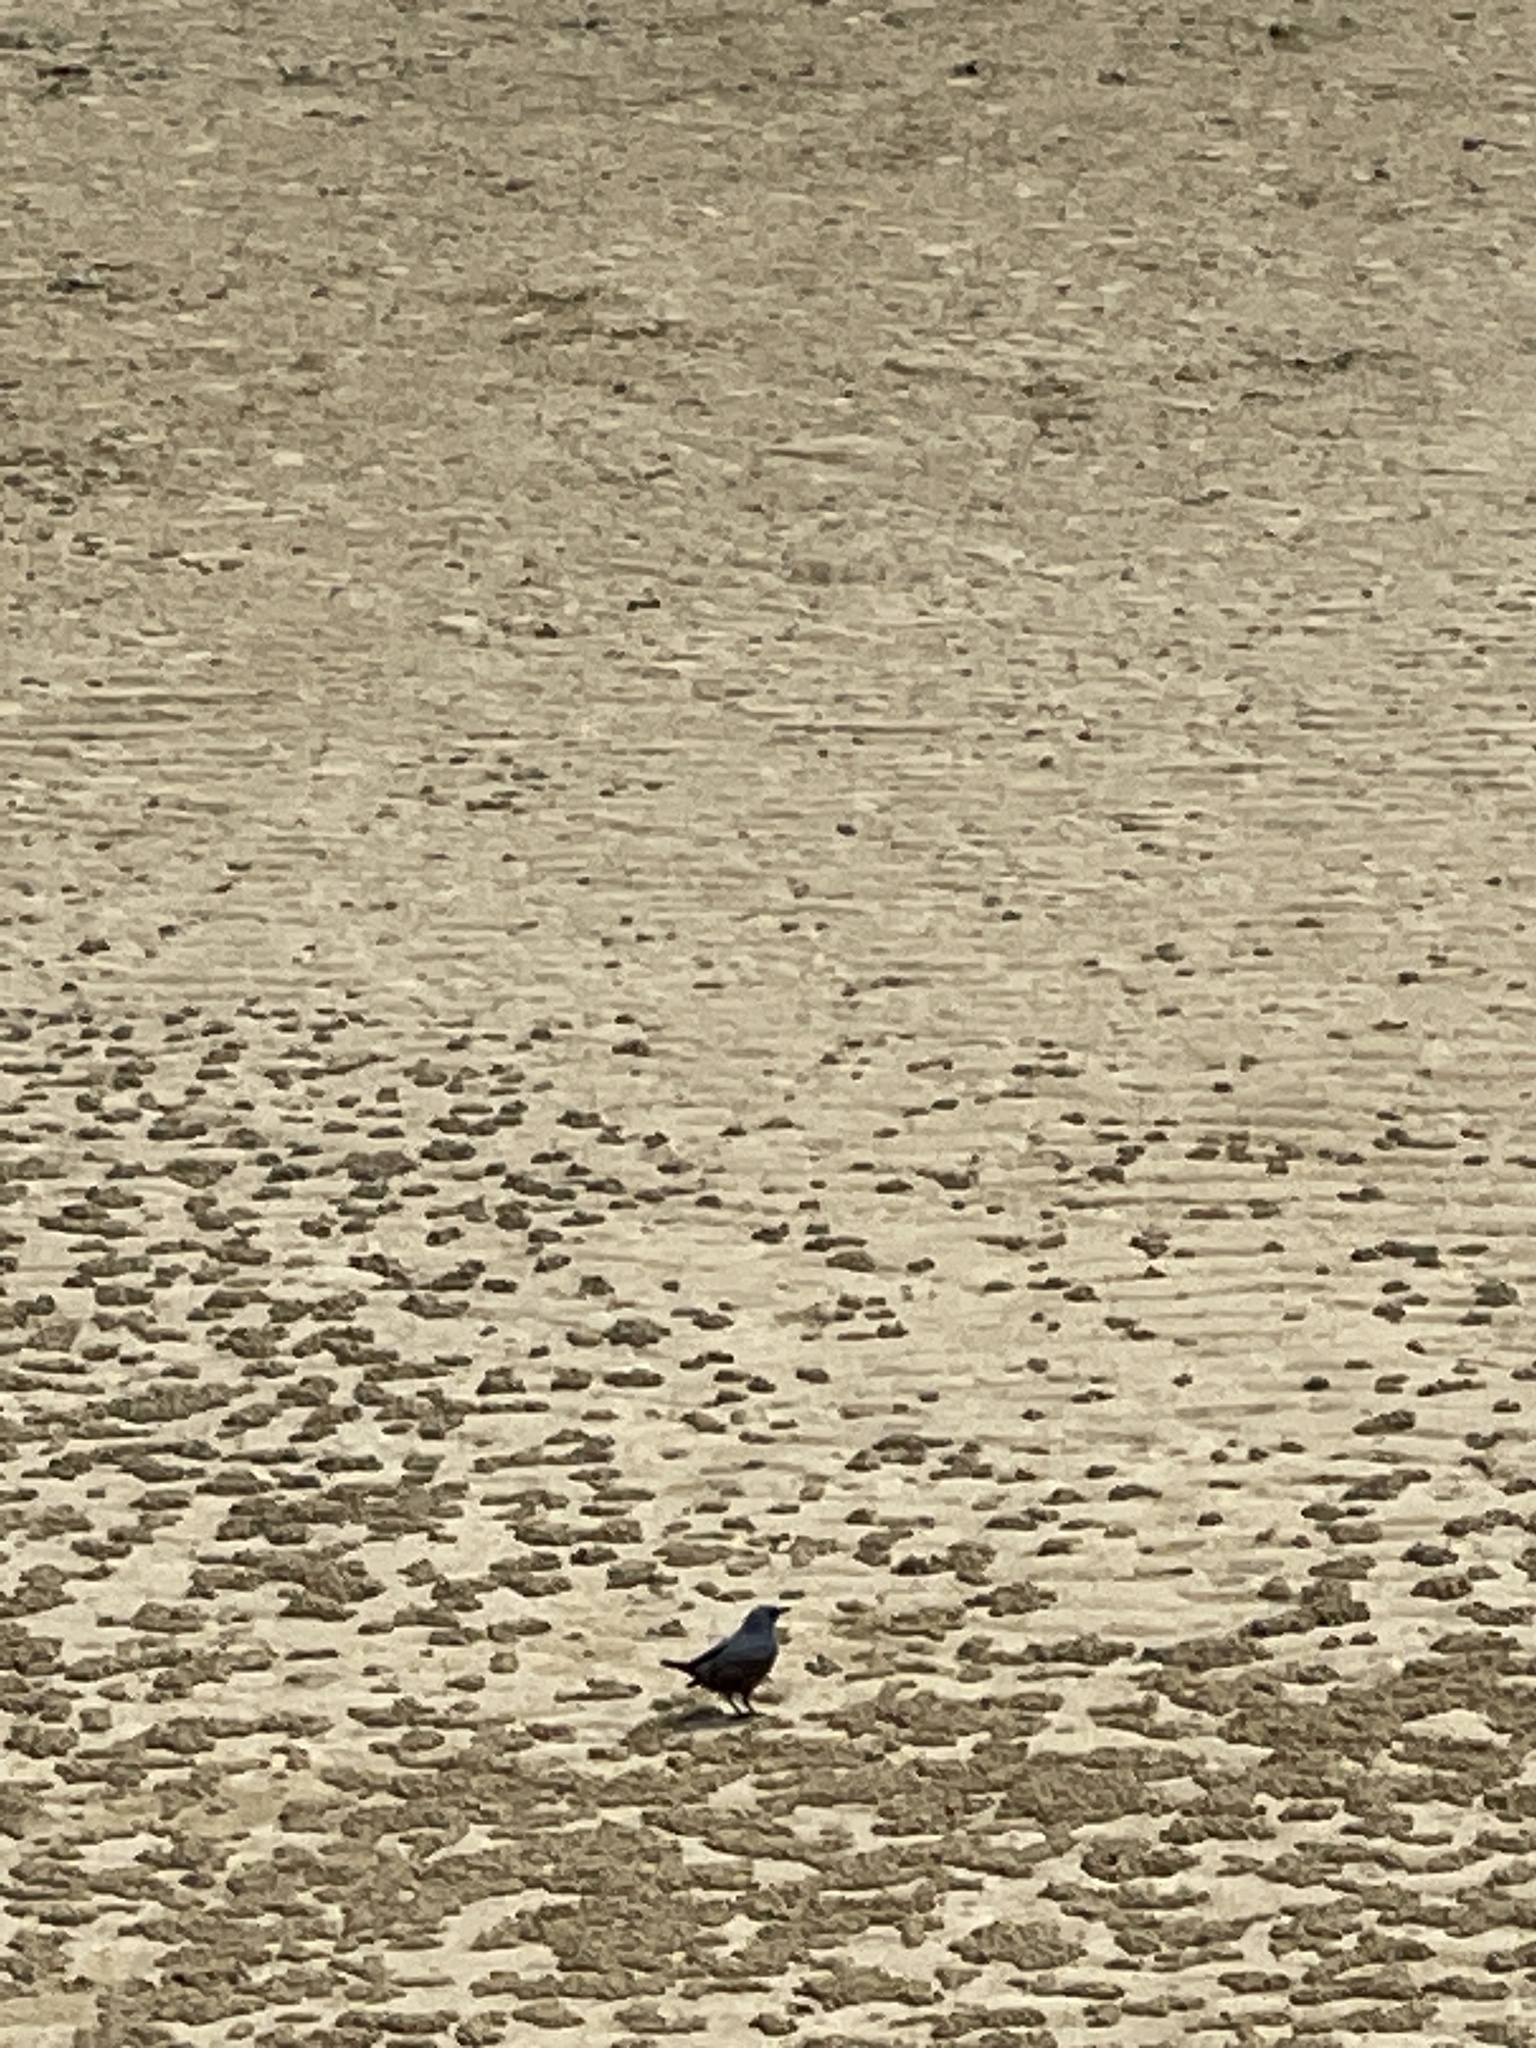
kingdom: Animalia
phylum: Chordata
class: Aves
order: Passeriformes
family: Muscicapidae
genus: Monticola
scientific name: Monticola solitarius
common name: Blue rock thrush
